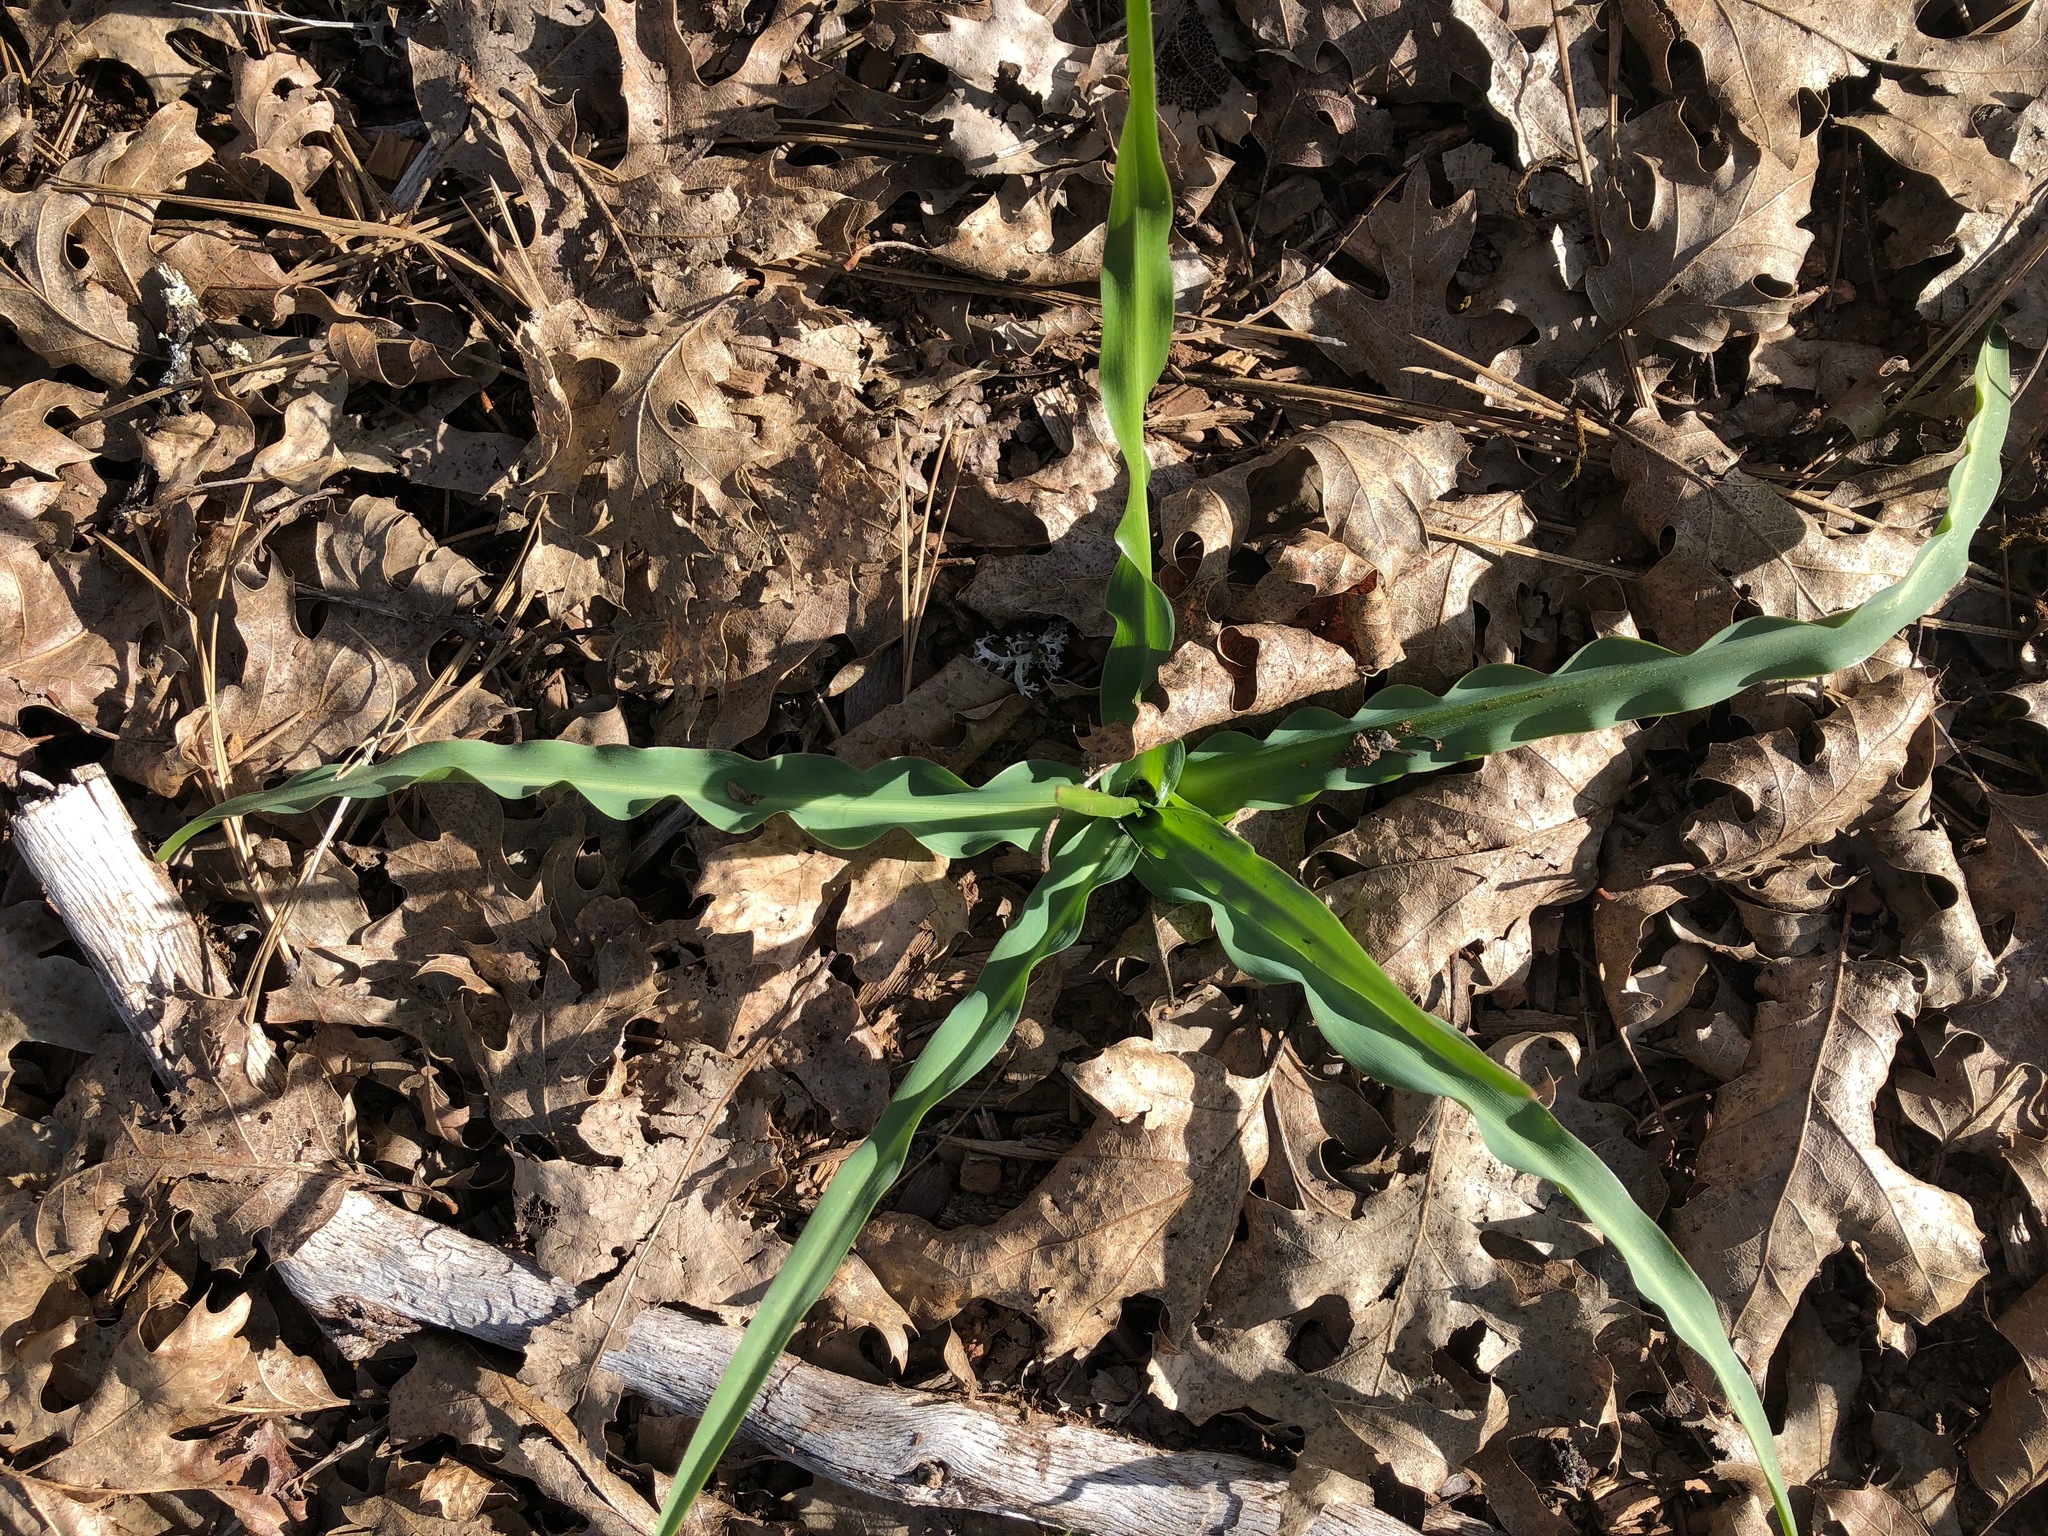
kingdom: Plantae
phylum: Tracheophyta
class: Liliopsida
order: Asparagales
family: Asparagaceae
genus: Chlorogalum
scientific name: Chlorogalum pomeridianum
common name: Amole
